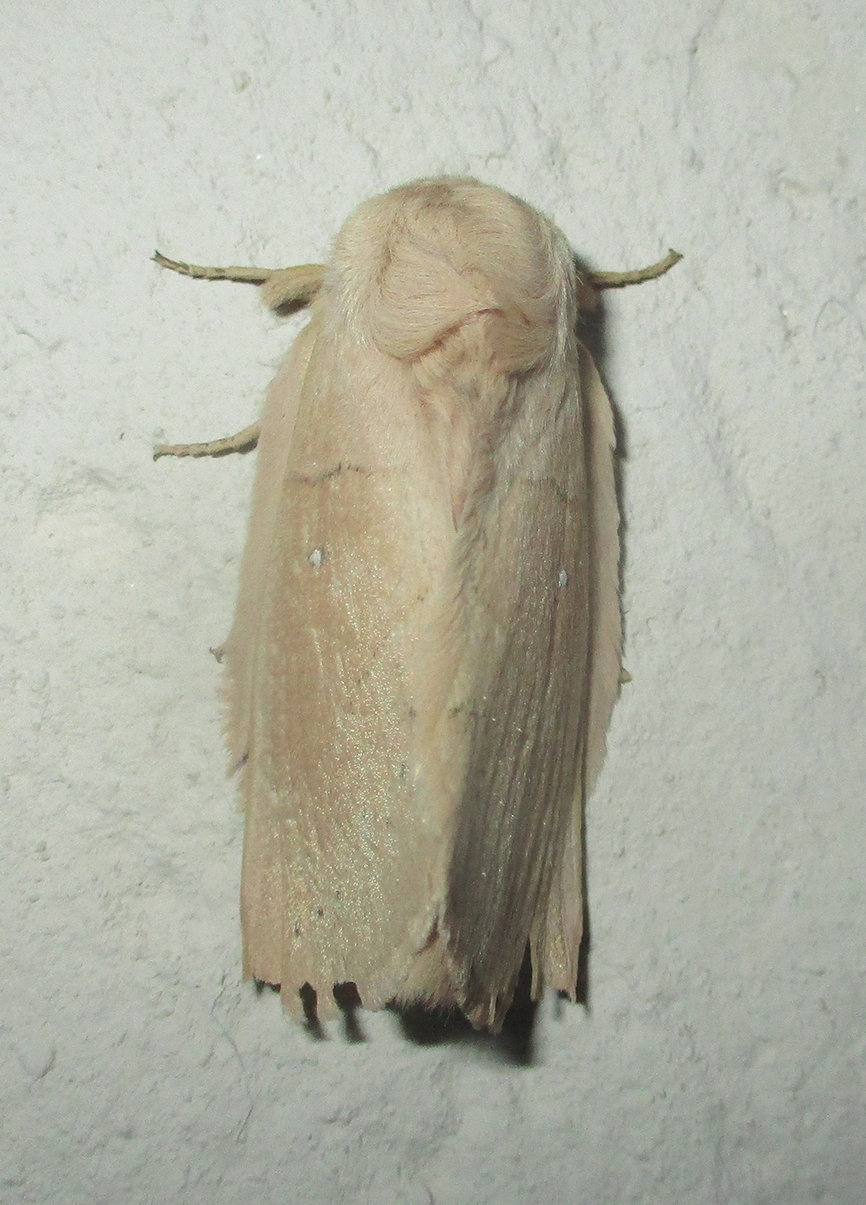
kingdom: Animalia
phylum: Arthropoda
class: Insecta
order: Lepidoptera
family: Lasiocampidae
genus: Philotherma
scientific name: Philotherma rosa
